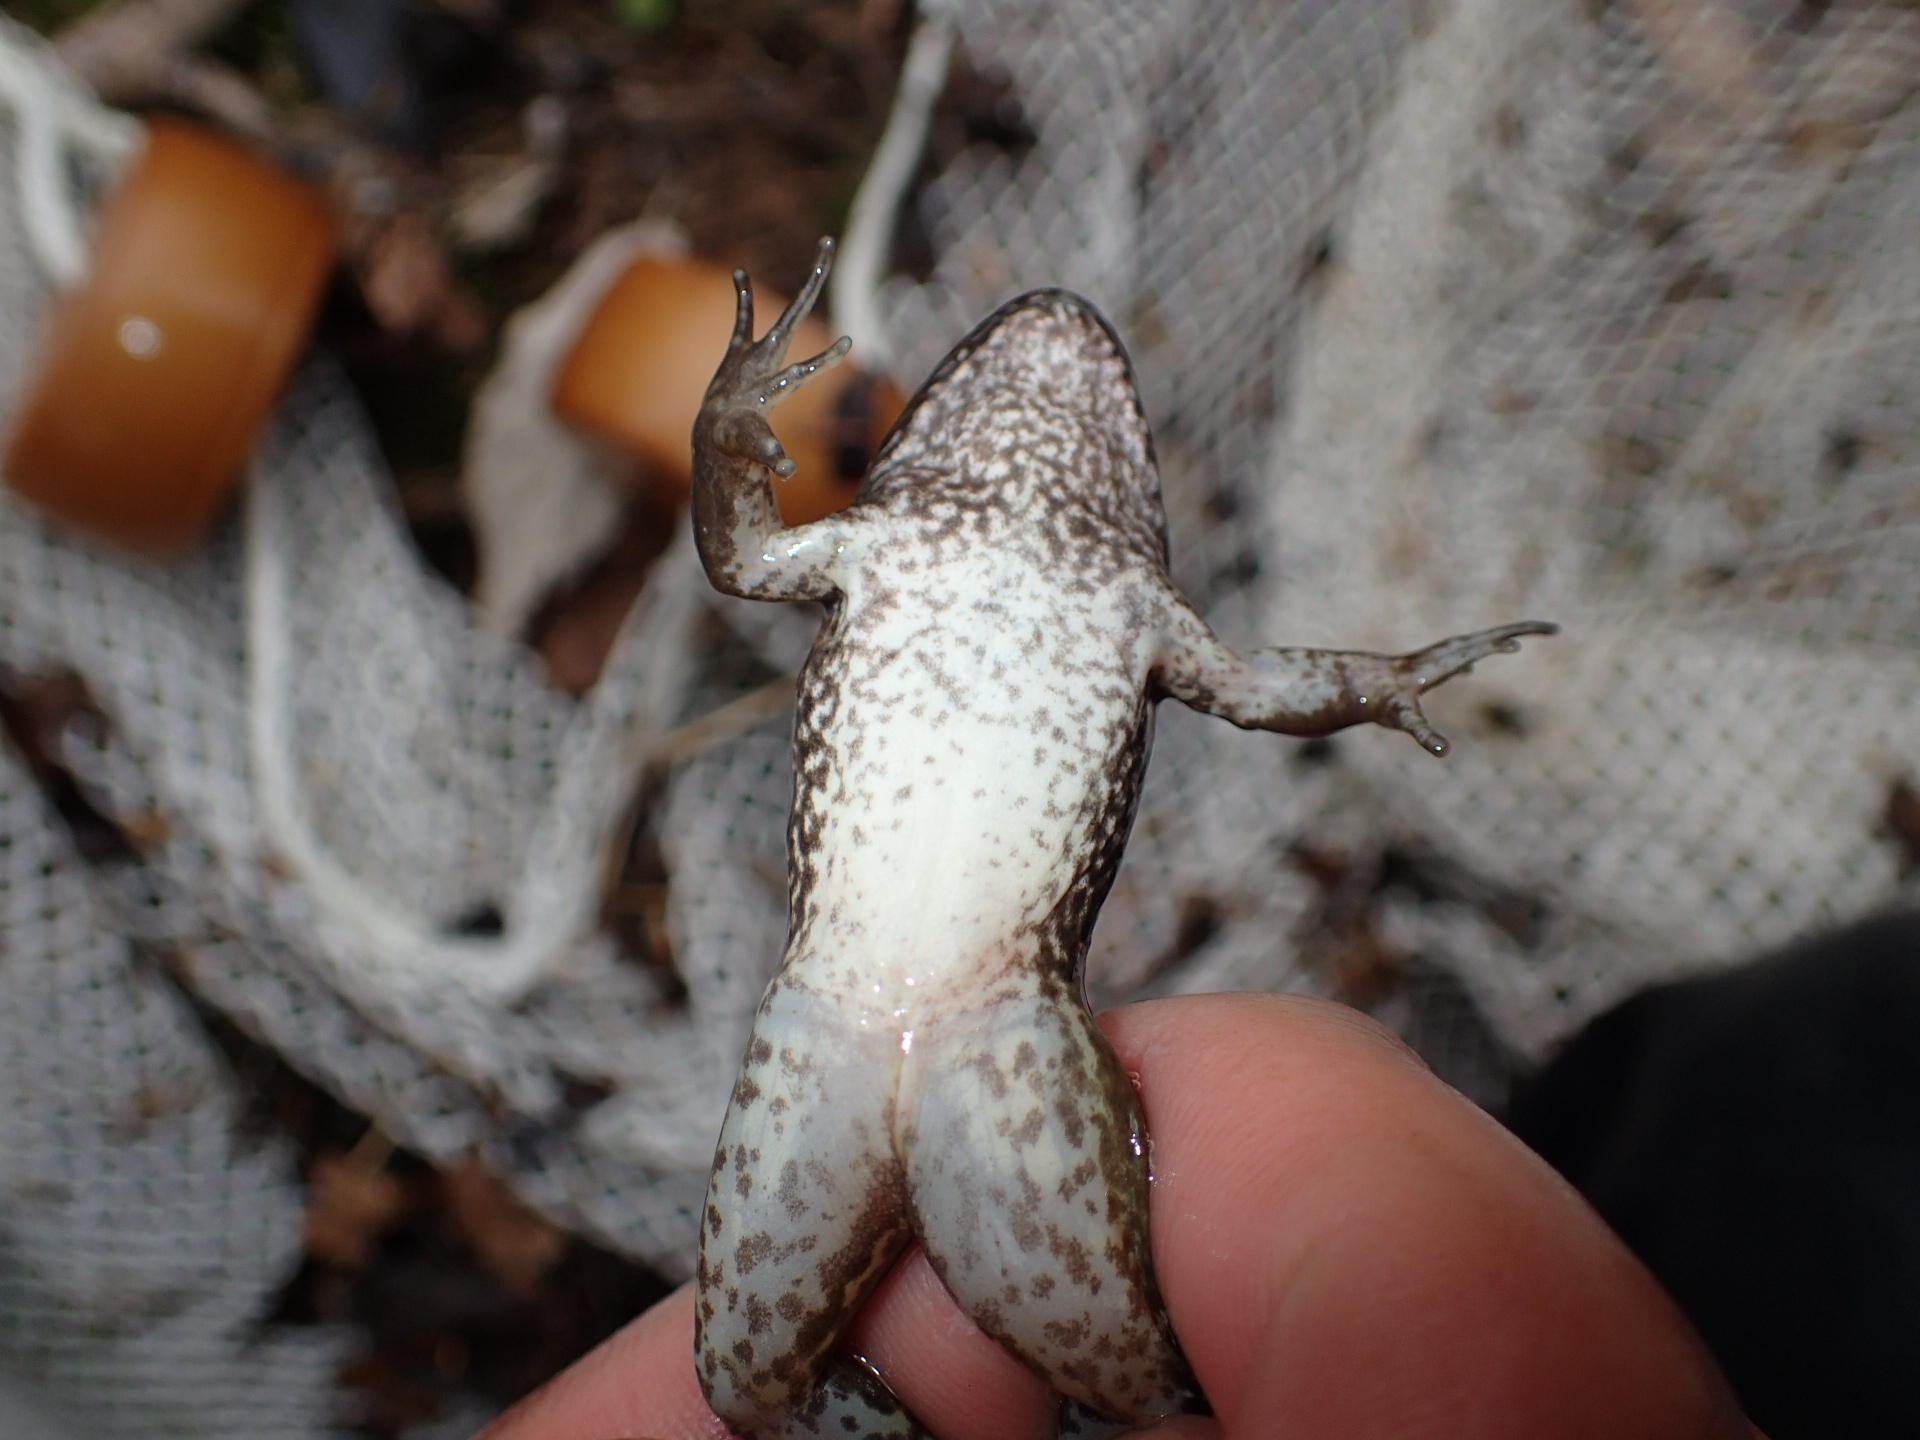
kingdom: Animalia
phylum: Chordata
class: Amphibia
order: Anura
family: Ranidae
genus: Lithobates
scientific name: Lithobates clamitans
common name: Green frog
